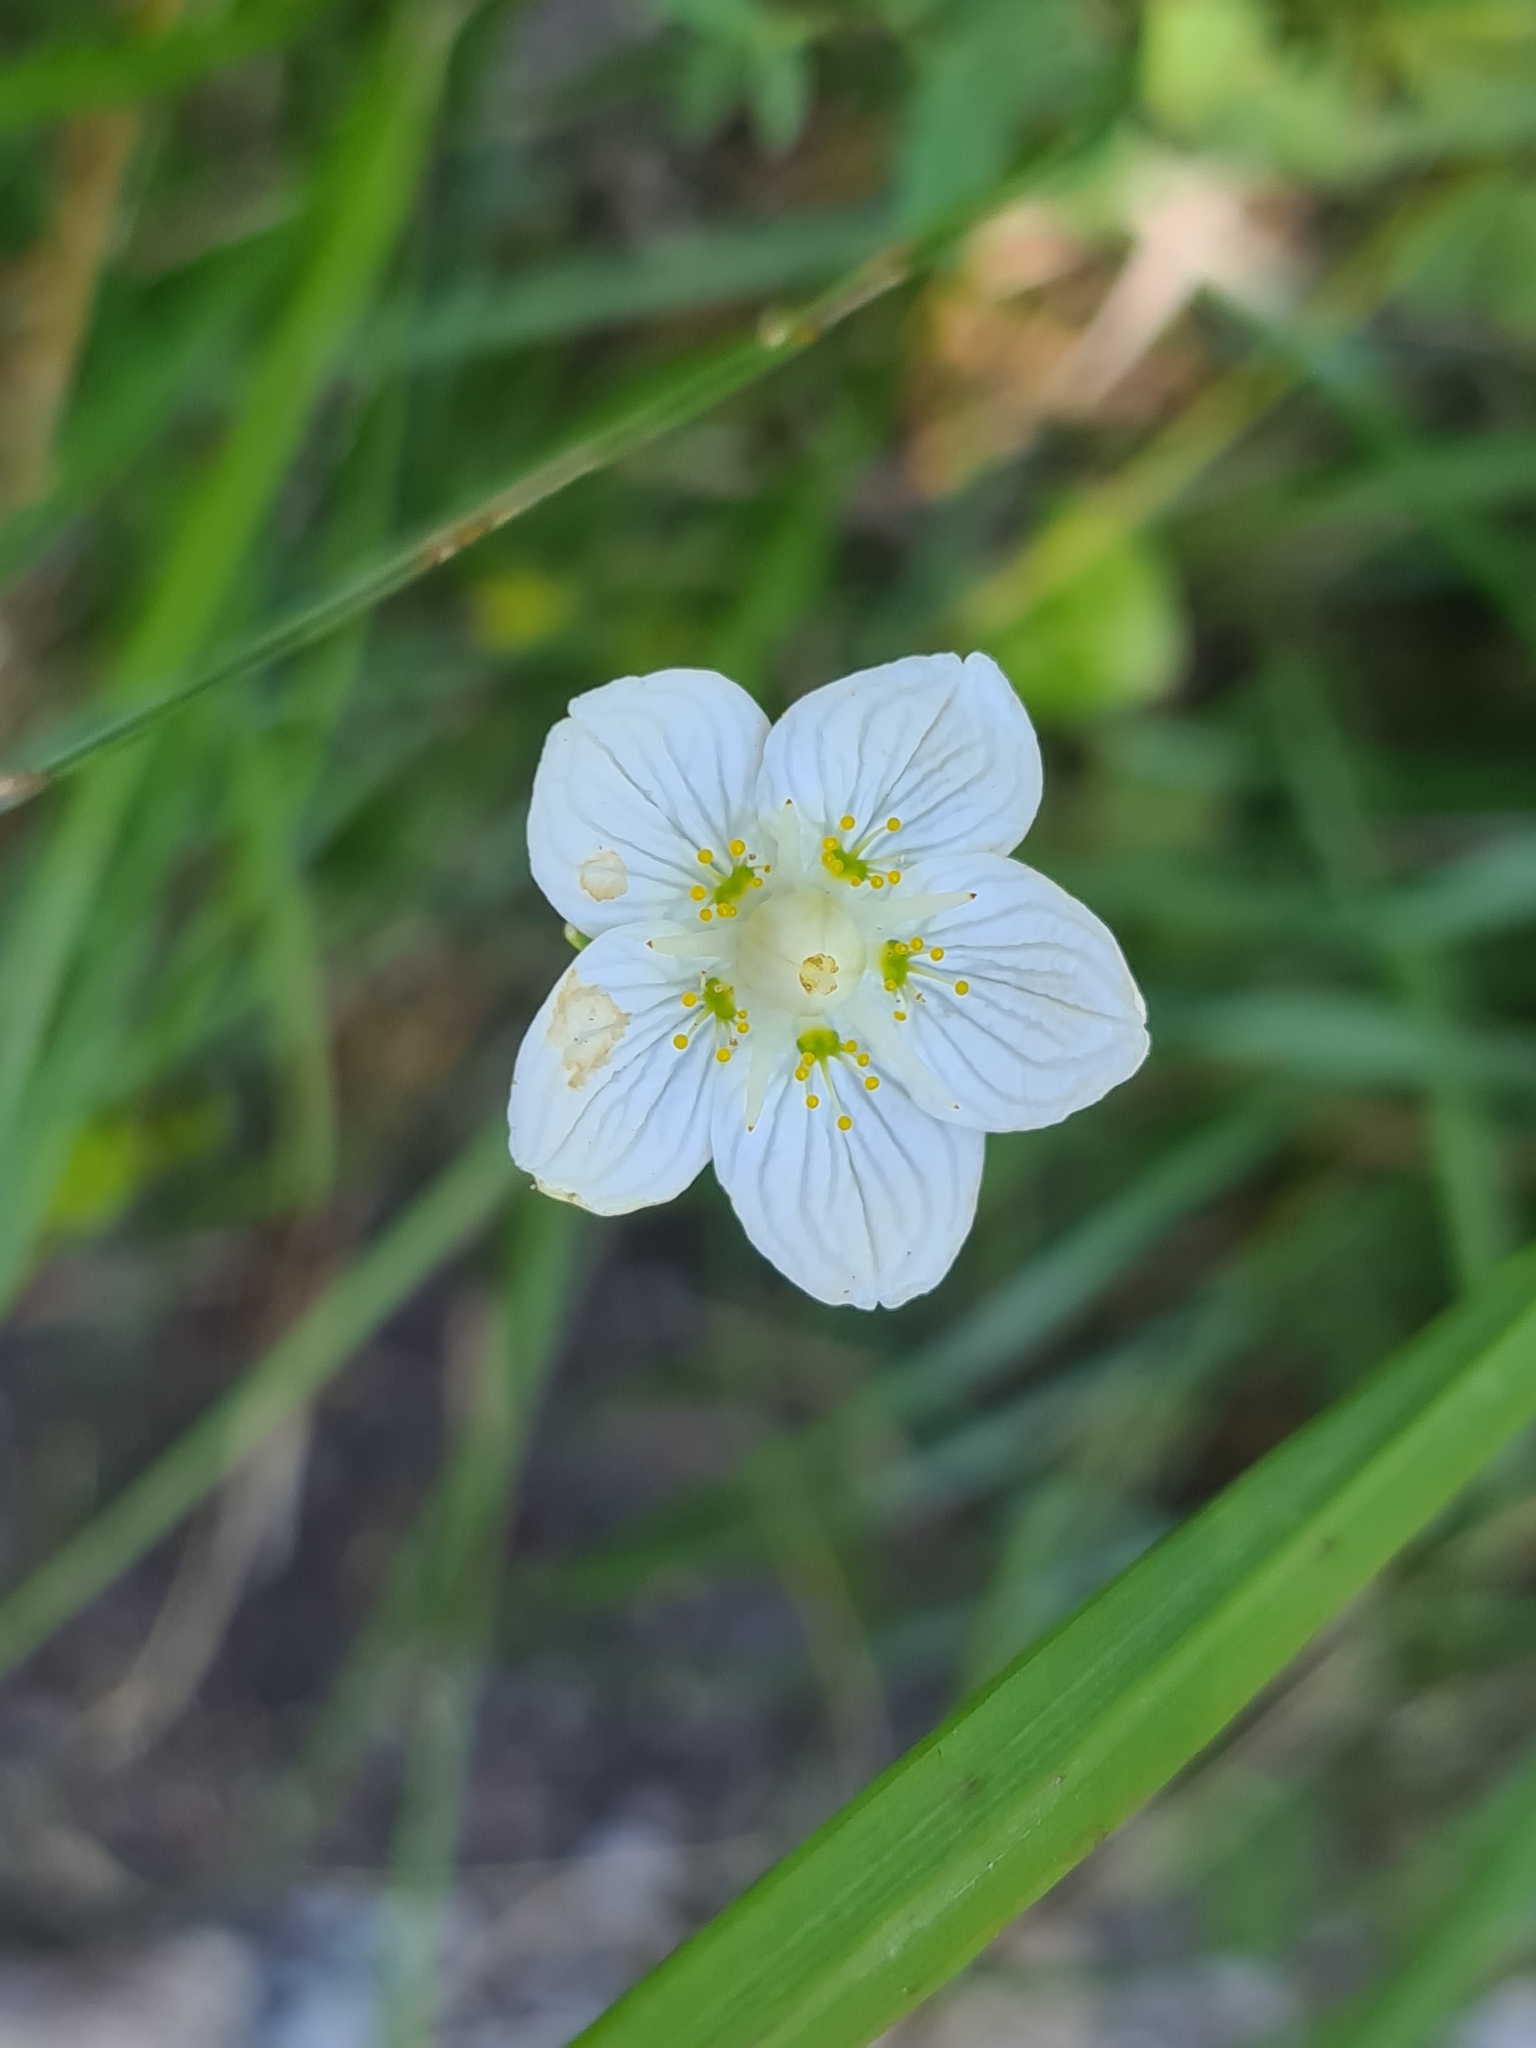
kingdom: Plantae
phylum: Tracheophyta
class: Magnoliopsida
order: Celastrales
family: Parnassiaceae
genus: Parnassia
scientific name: Parnassia palustris
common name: Grass-of-parnassus
